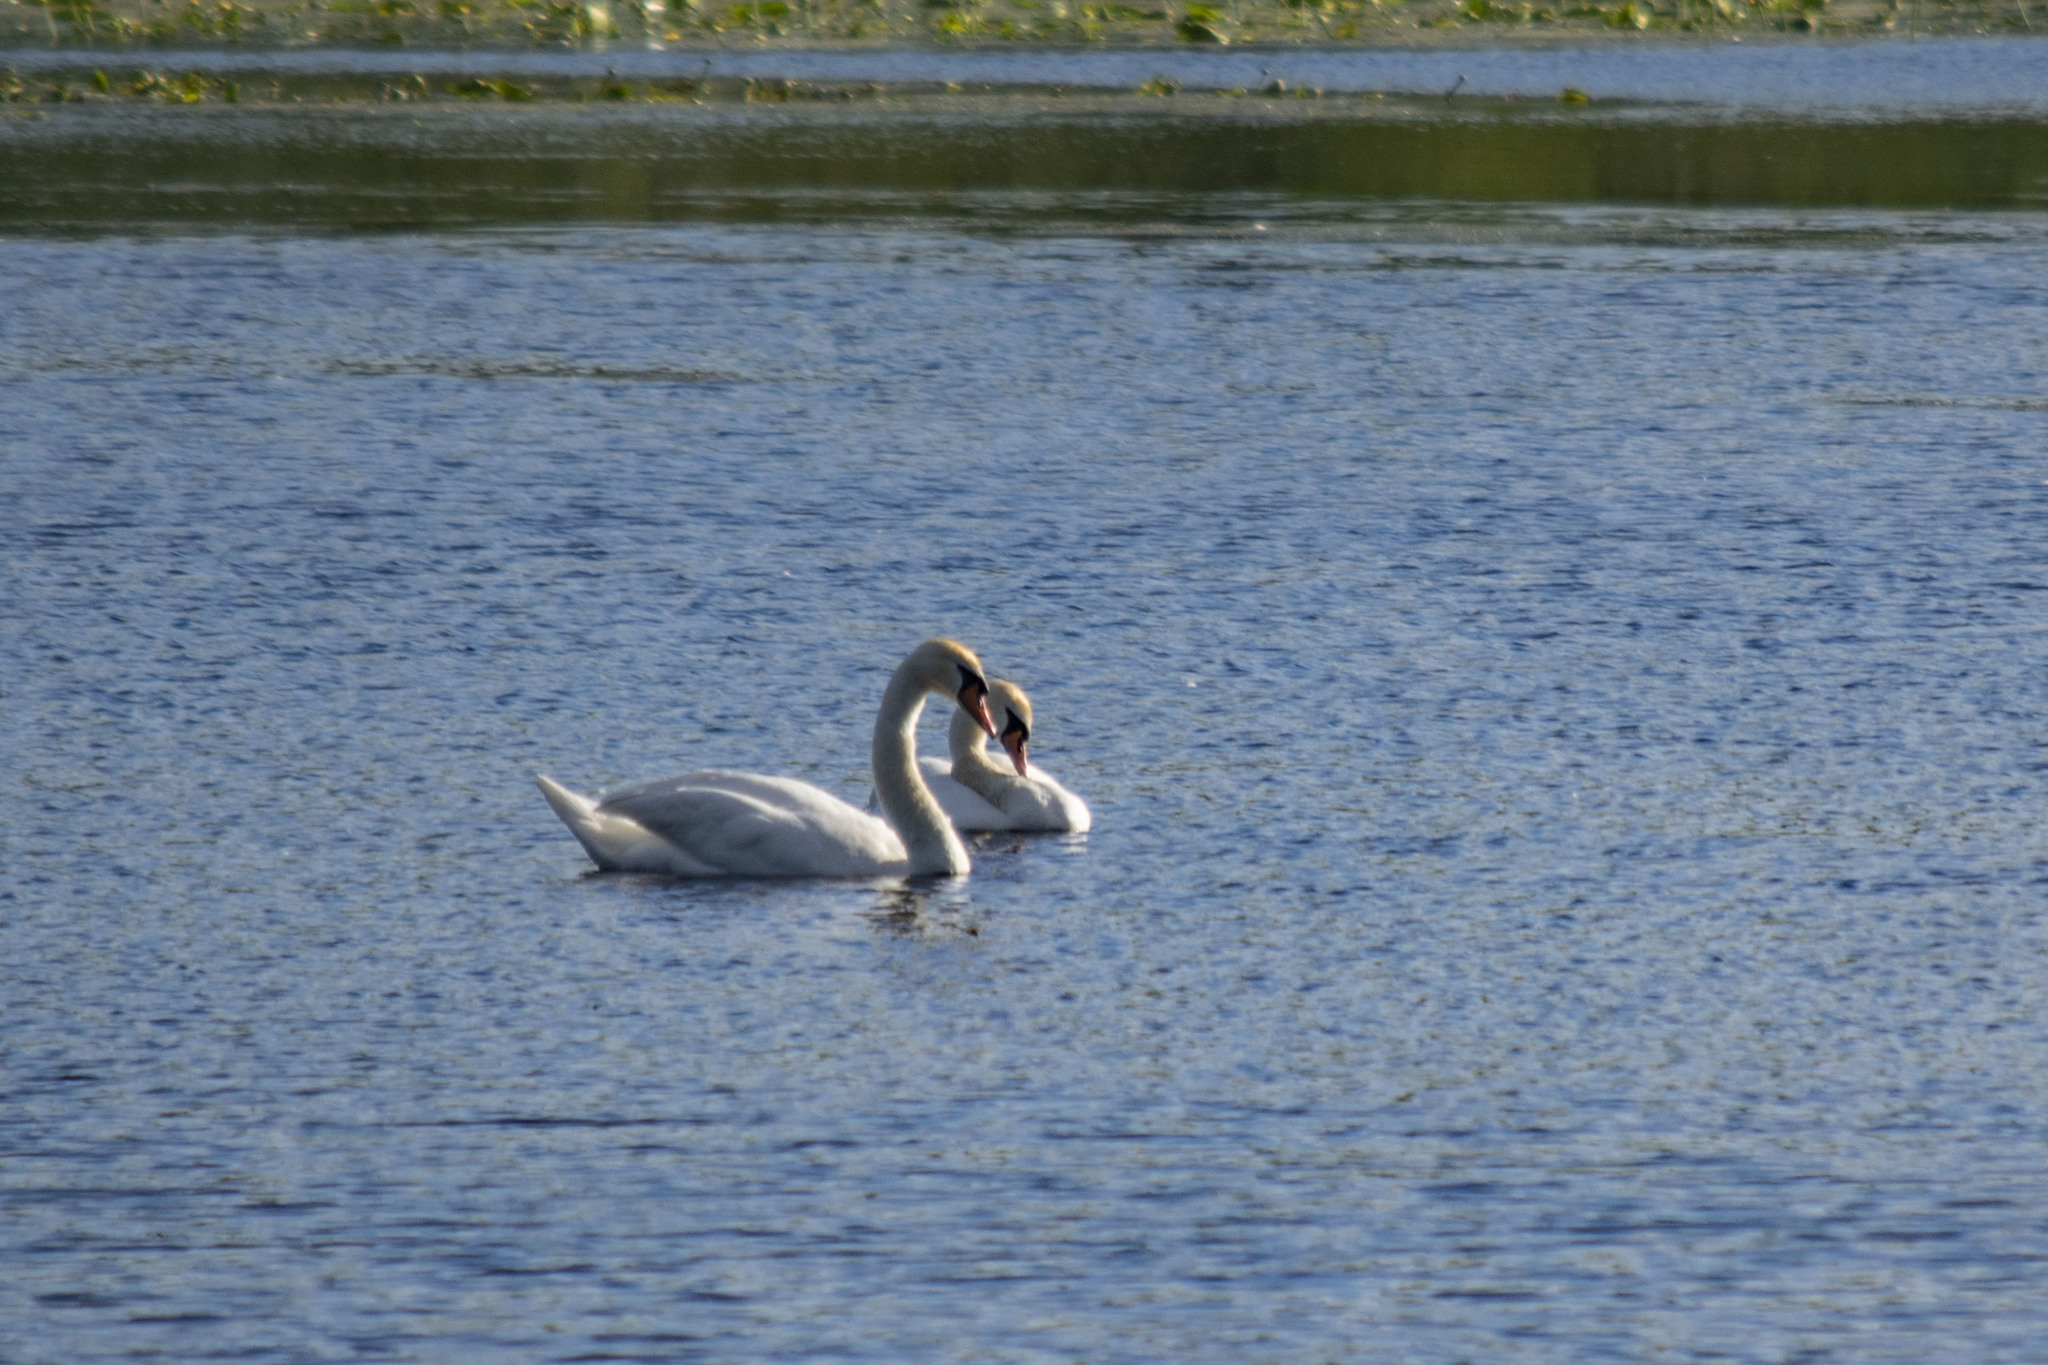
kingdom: Animalia
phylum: Chordata
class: Aves
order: Anseriformes
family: Anatidae
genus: Cygnus
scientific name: Cygnus olor
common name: Mute swan
